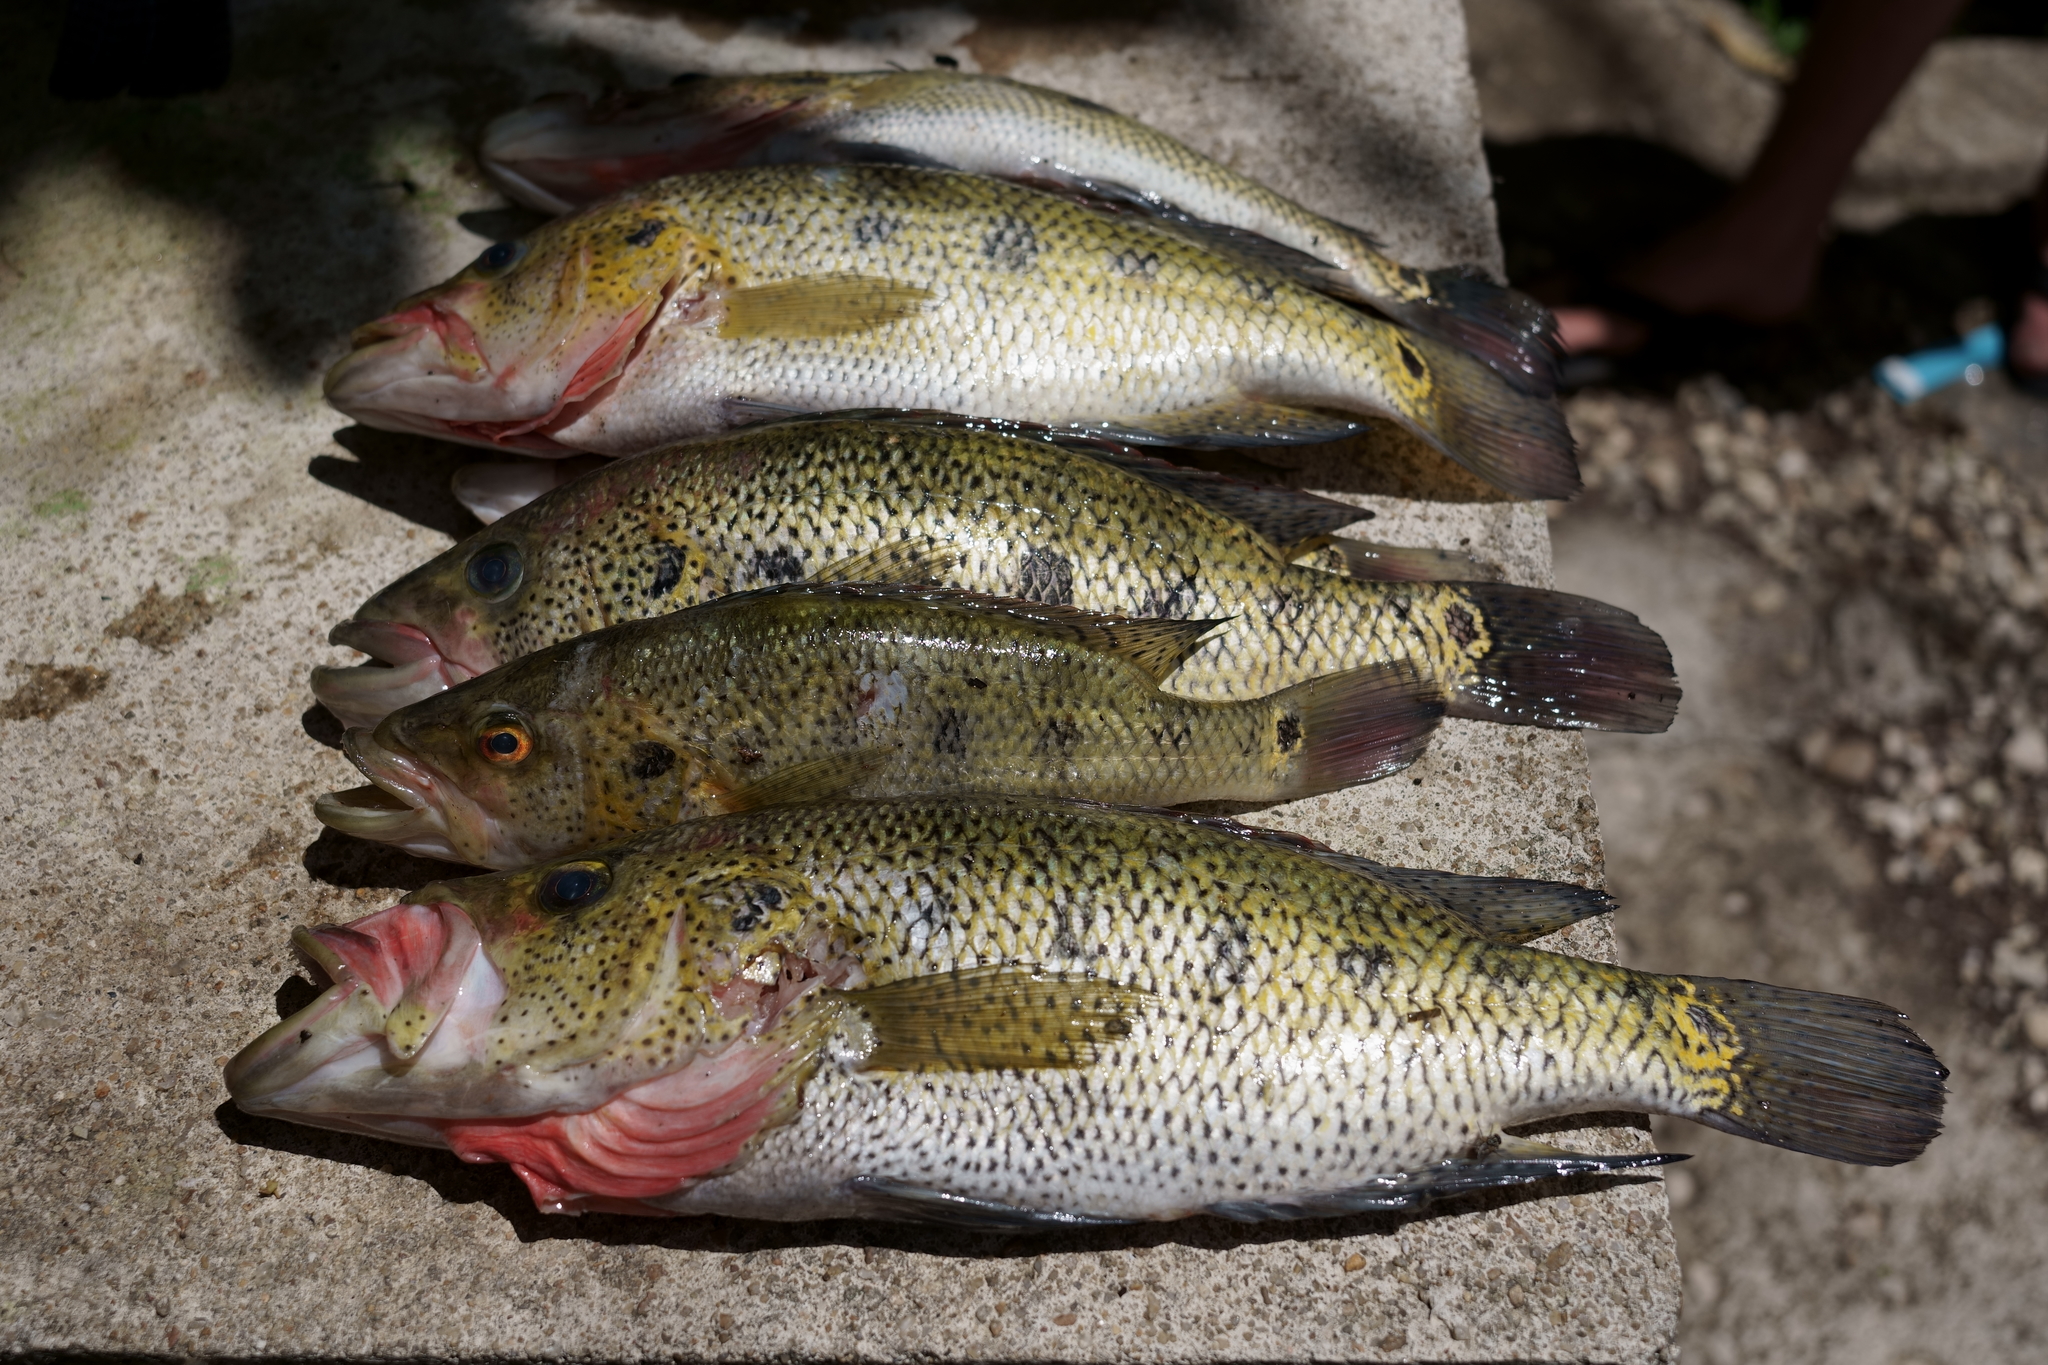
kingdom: Animalia
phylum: Chordata
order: Perciformes
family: Cichlidae
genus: Petenia
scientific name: Petenia splendida
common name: Bay snook
